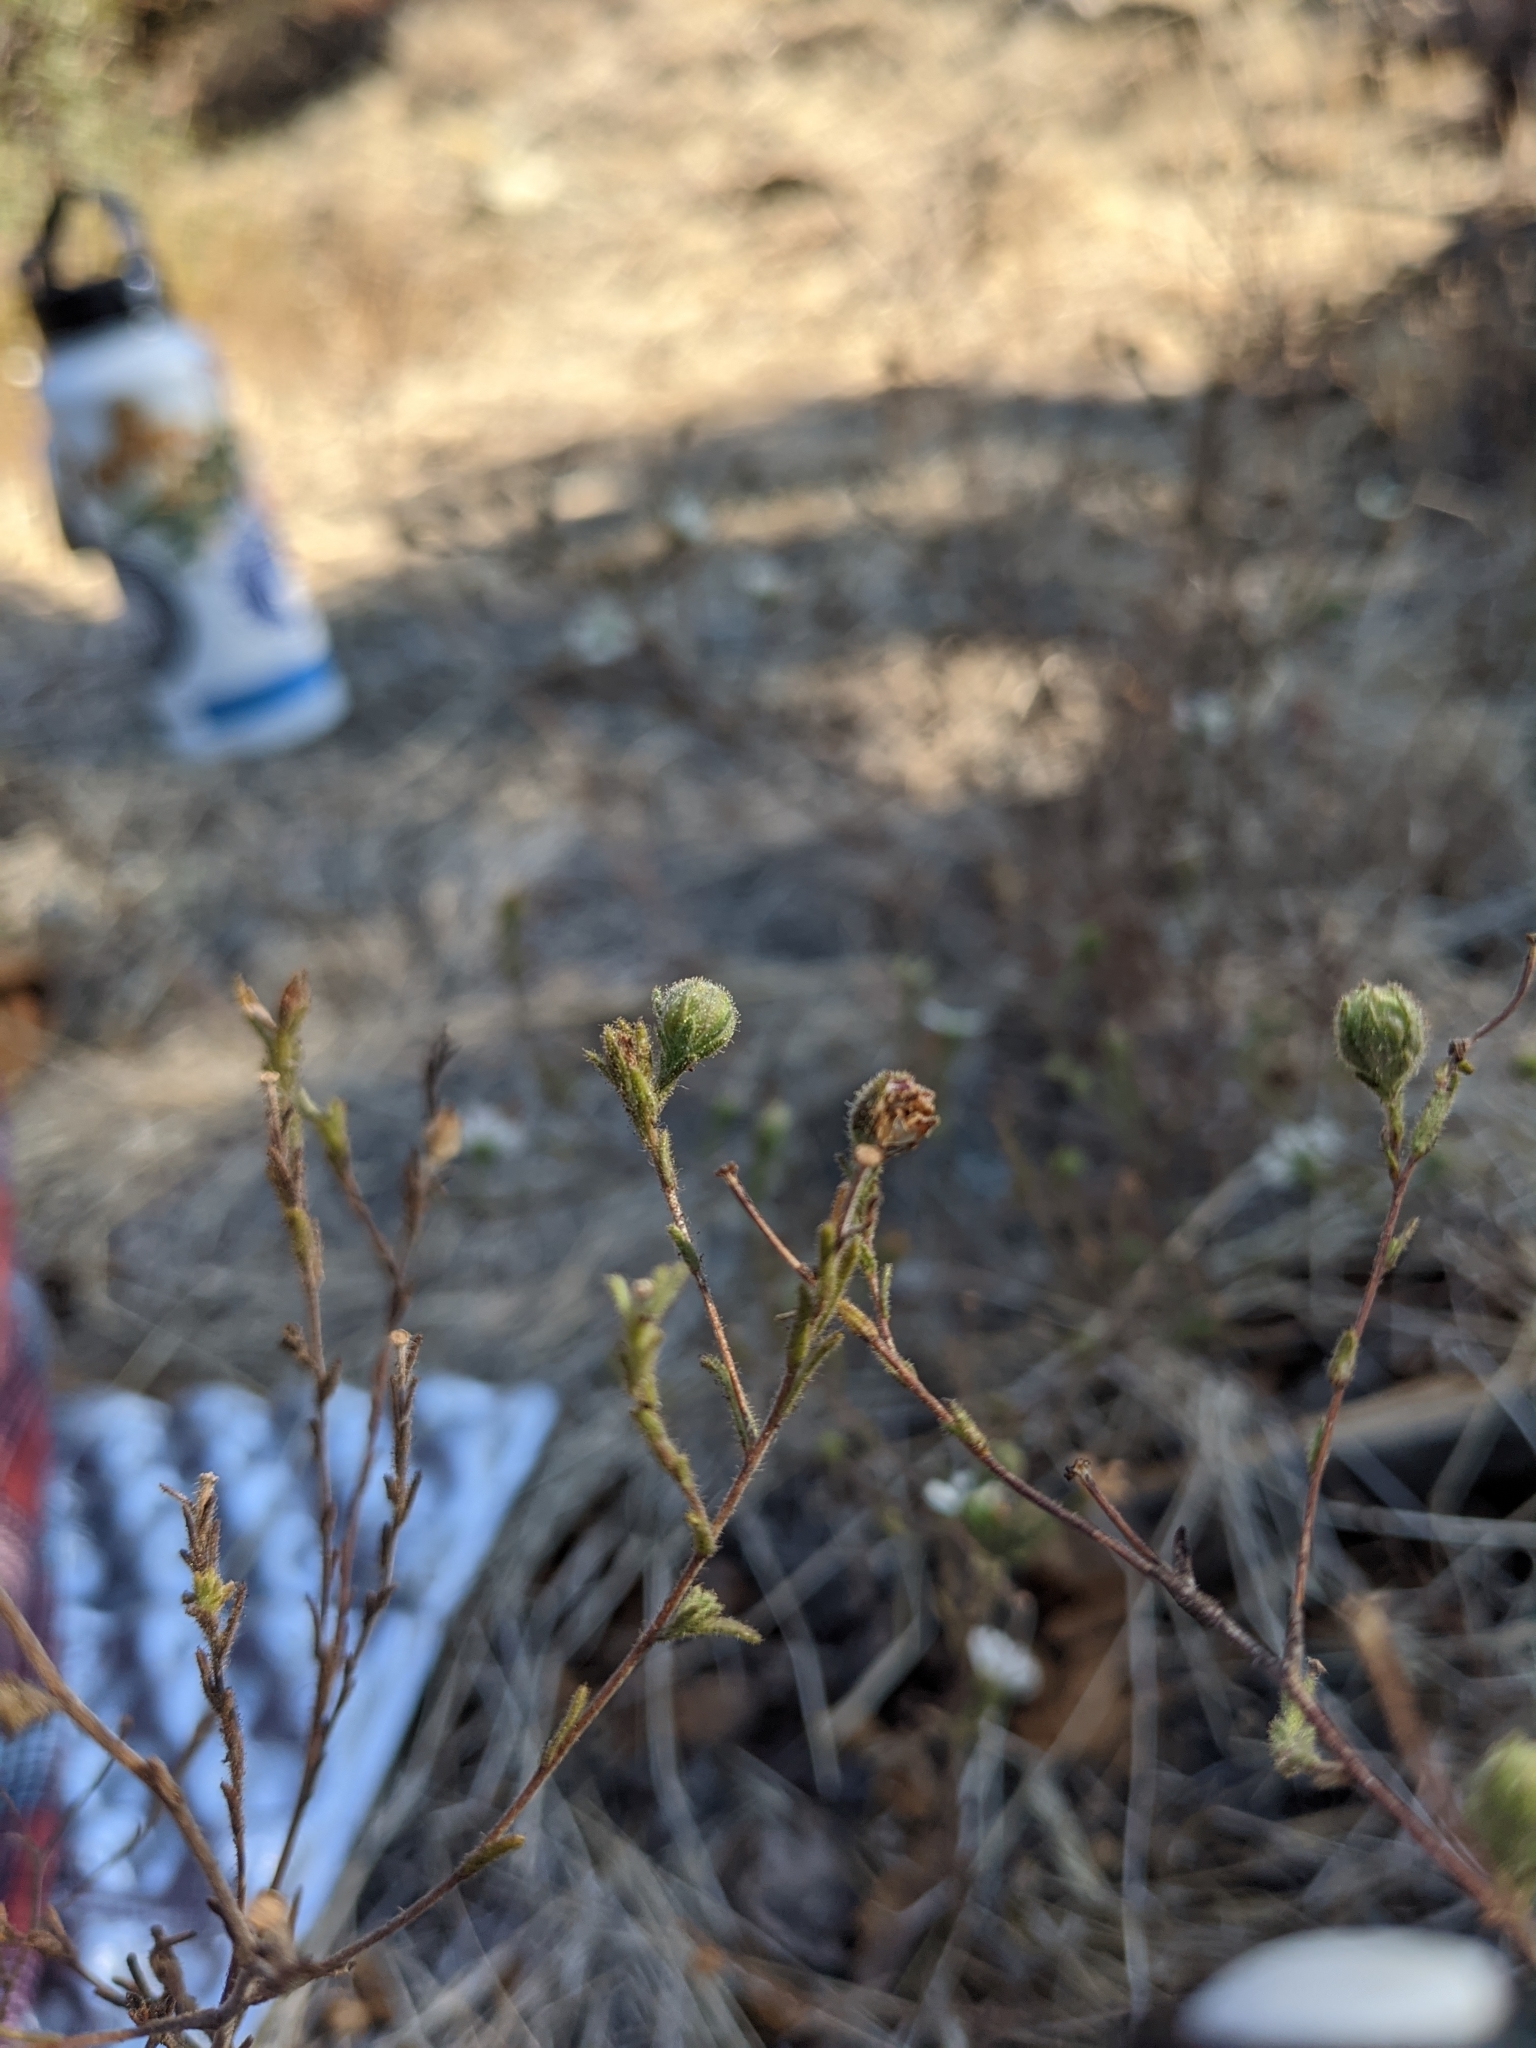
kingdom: Plantae
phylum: Tracheophyta
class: Magnoliopsida
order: Asterales
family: Asteraceae
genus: Hemizonia
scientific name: Hemizonia congesta
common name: Hayfield tarweed
